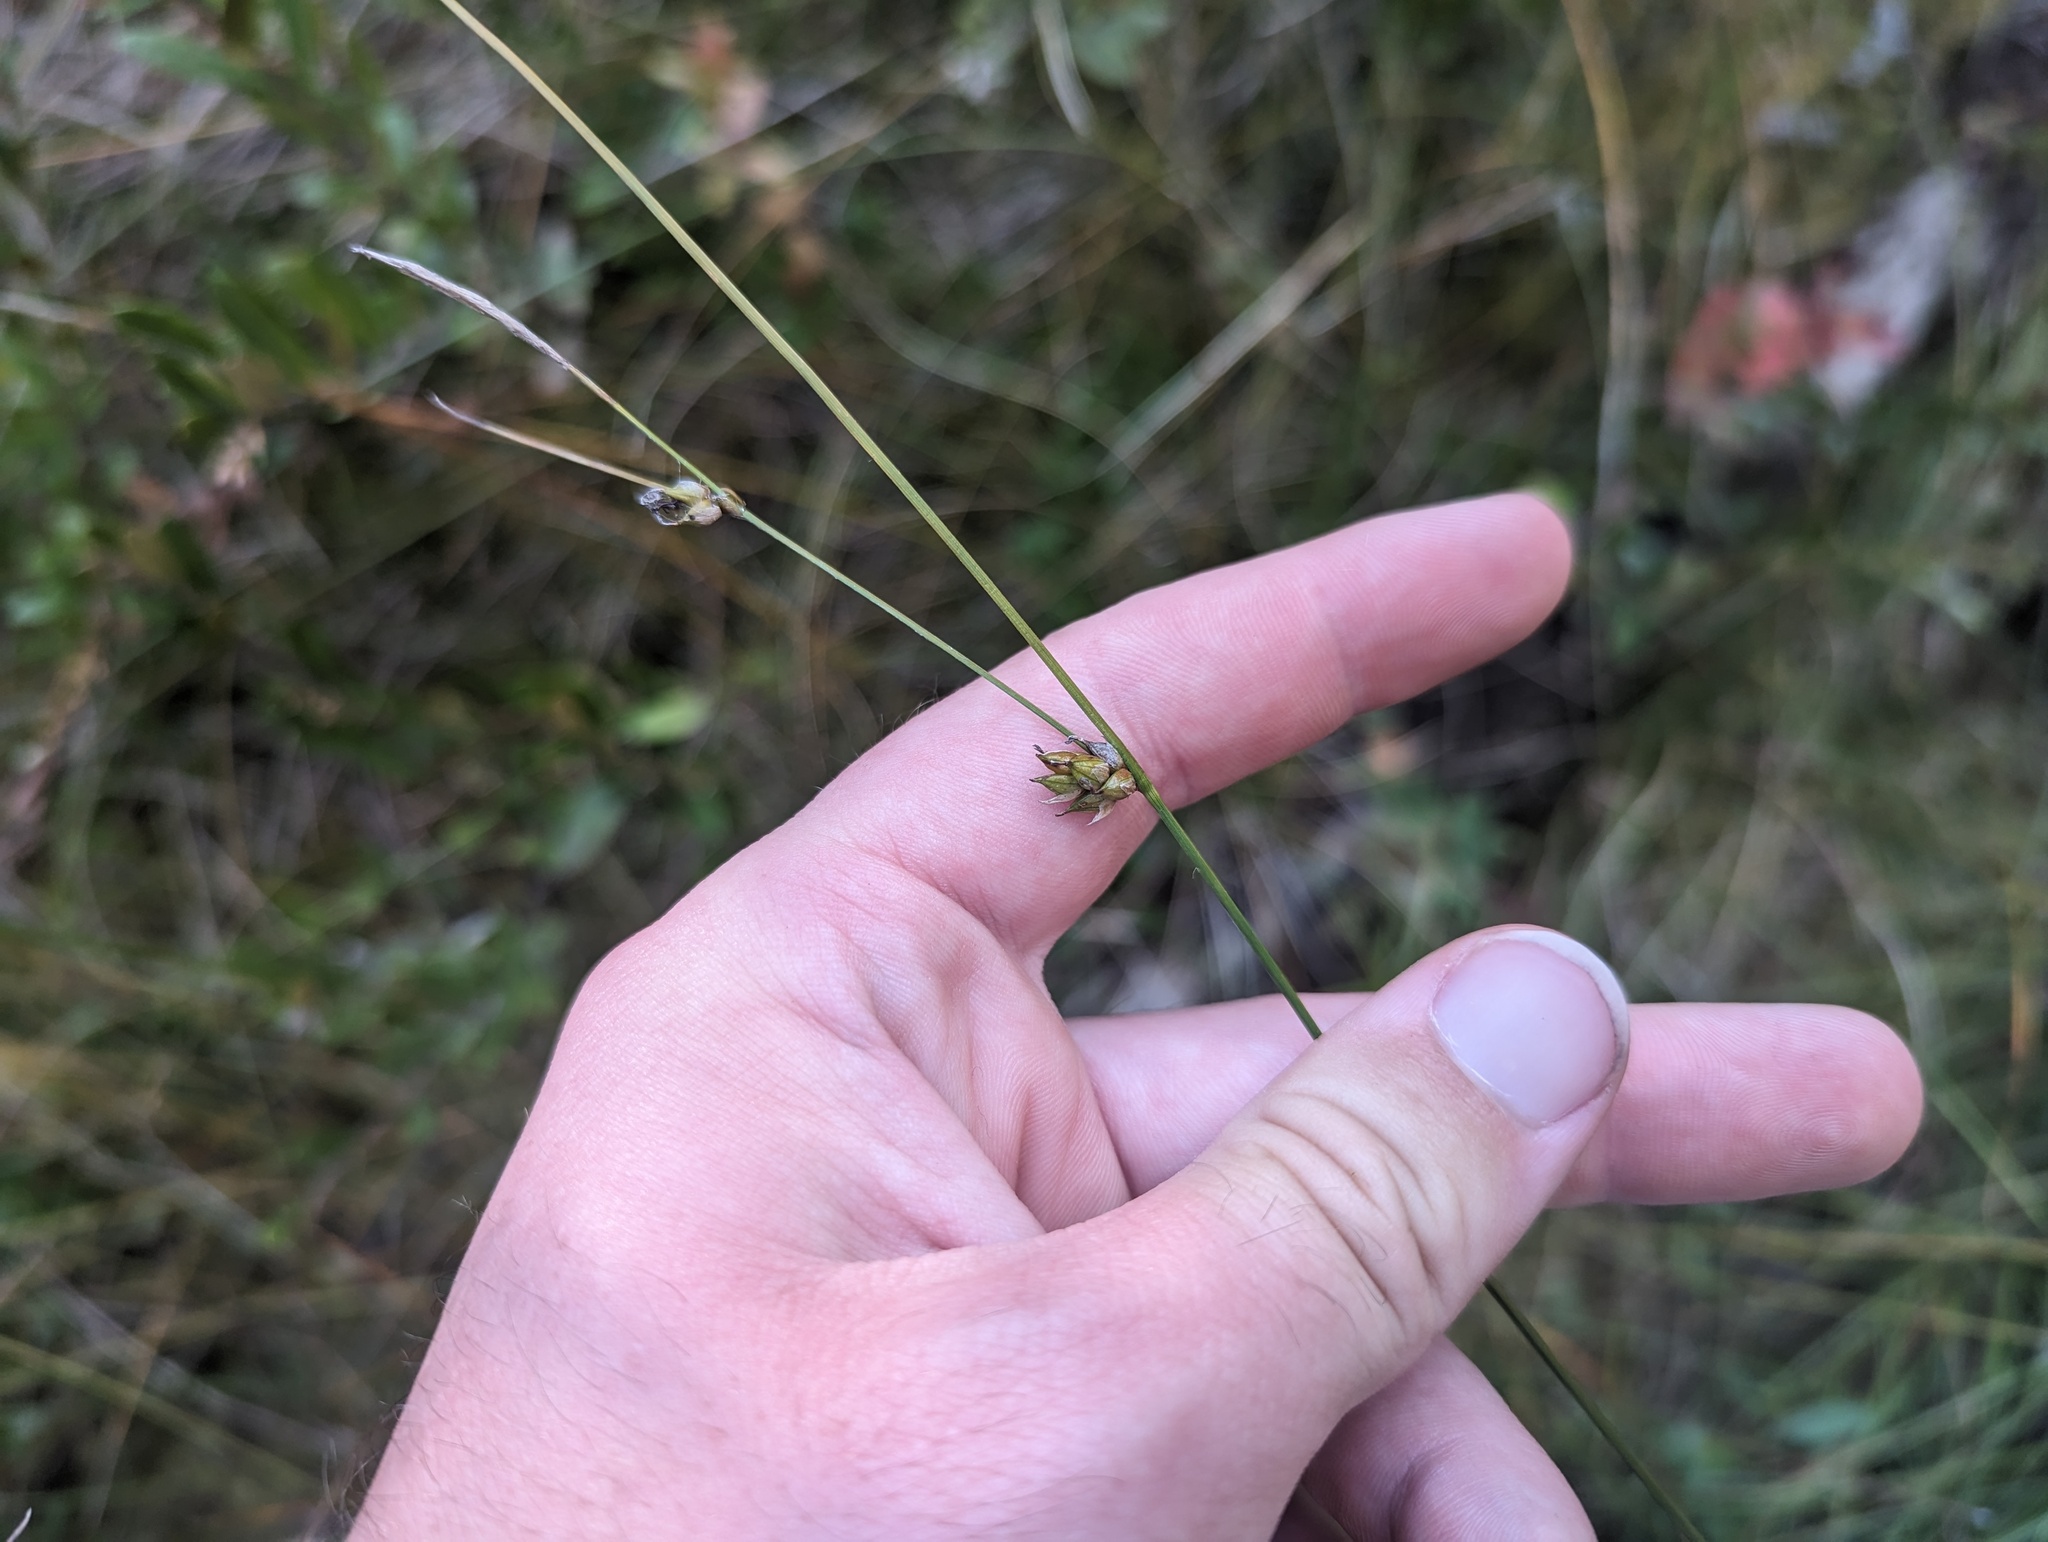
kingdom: Plantae
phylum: Tracheophyta
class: Liliopsida
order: Poales
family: Cyperaceae
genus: Carex
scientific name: Carex oligosperma
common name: Few-seed sedge
